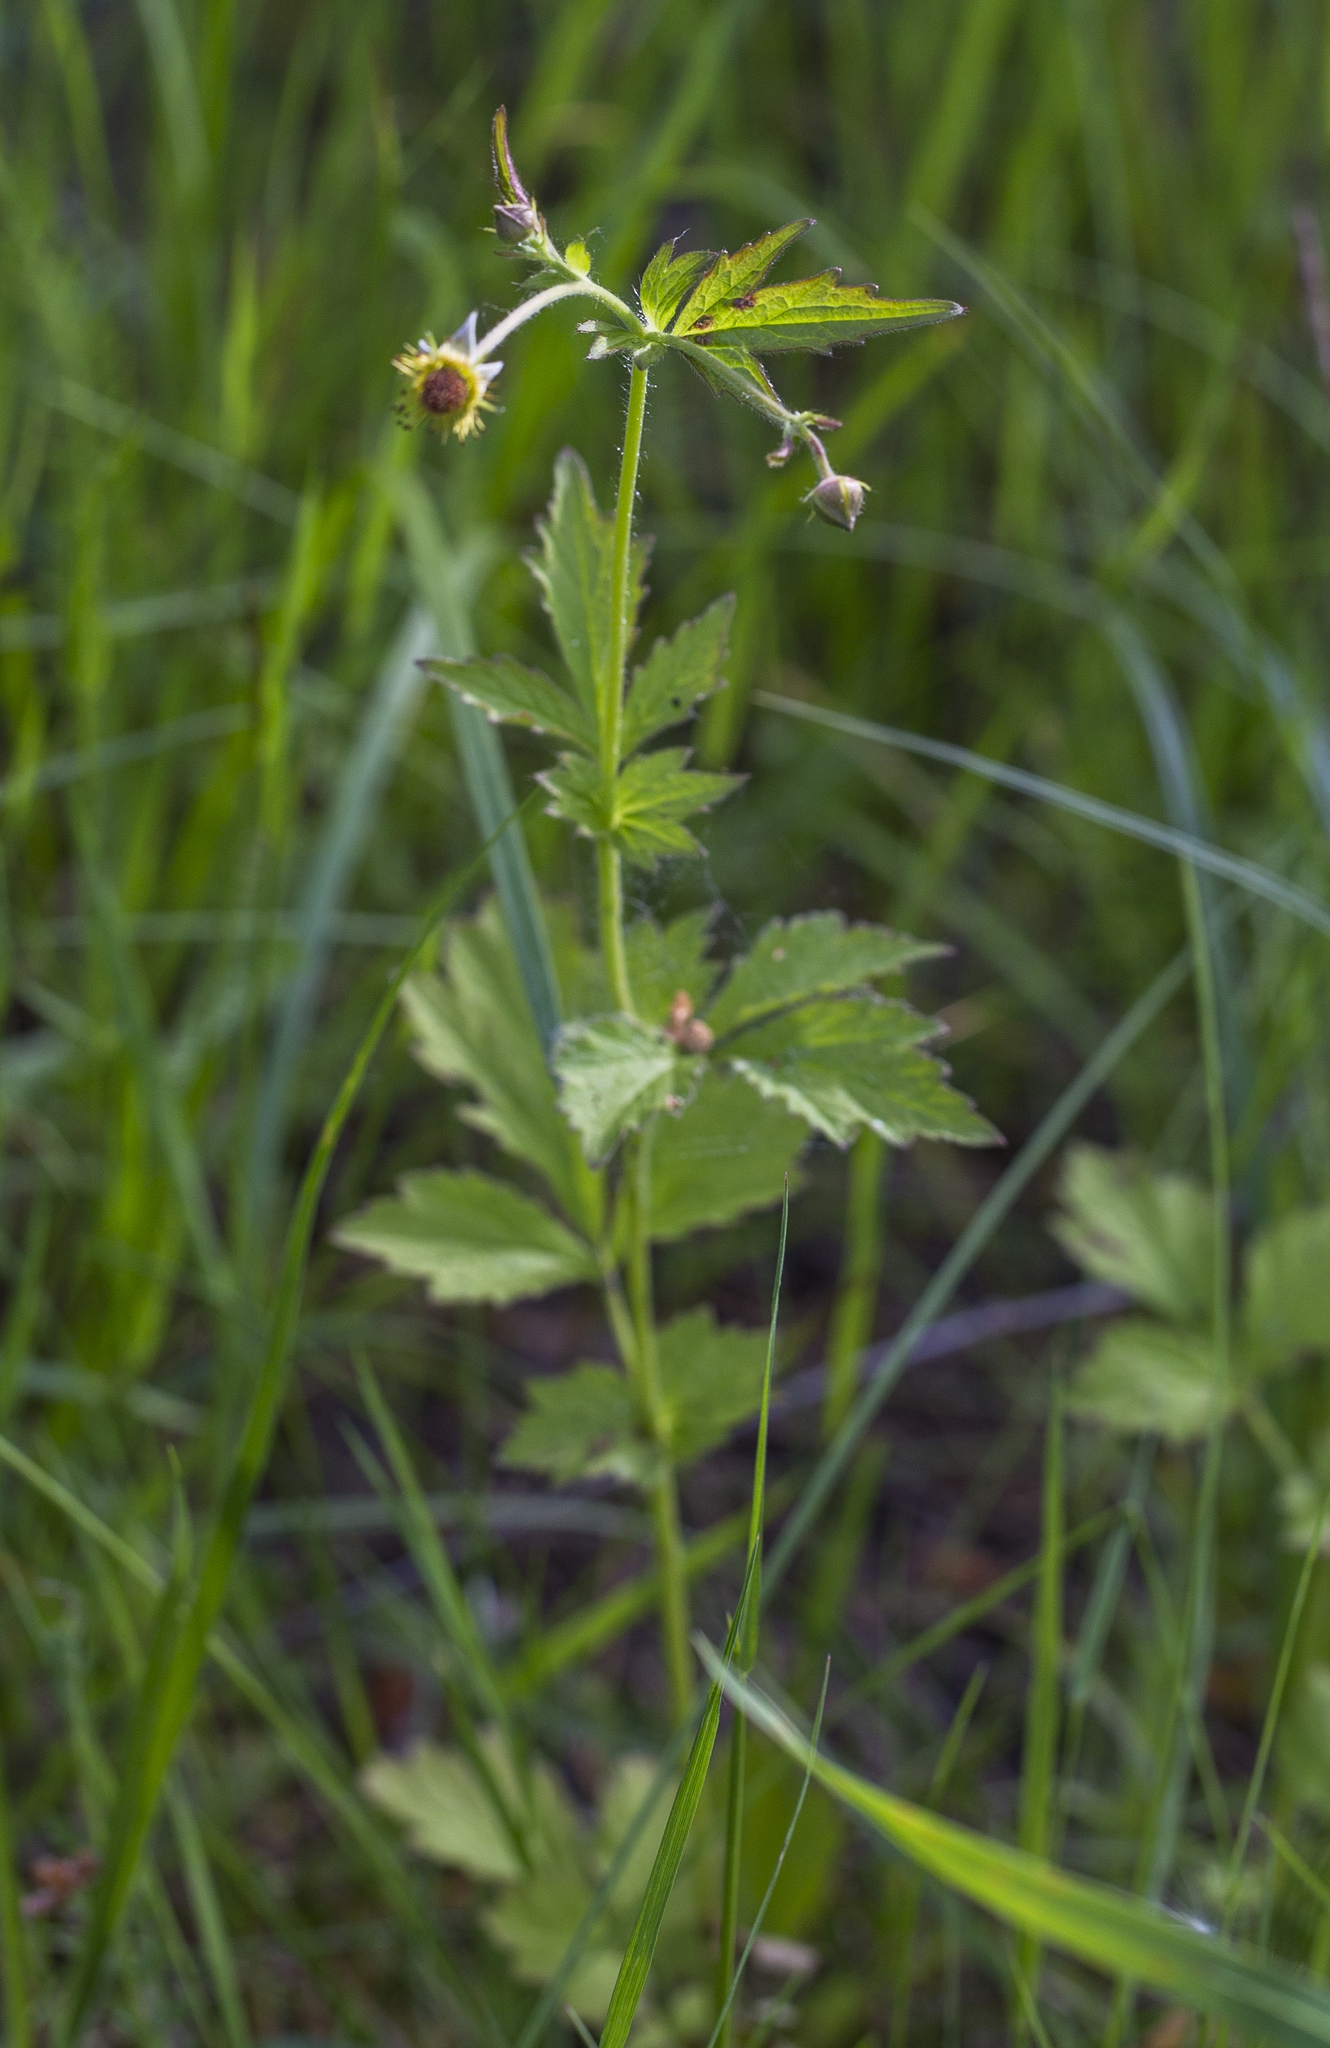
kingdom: Plantae
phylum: Tracheophyta
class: Magnoliopsida
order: Rosales
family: Rosaceae
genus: Geum
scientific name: Geum urbanum
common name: Wood avens
